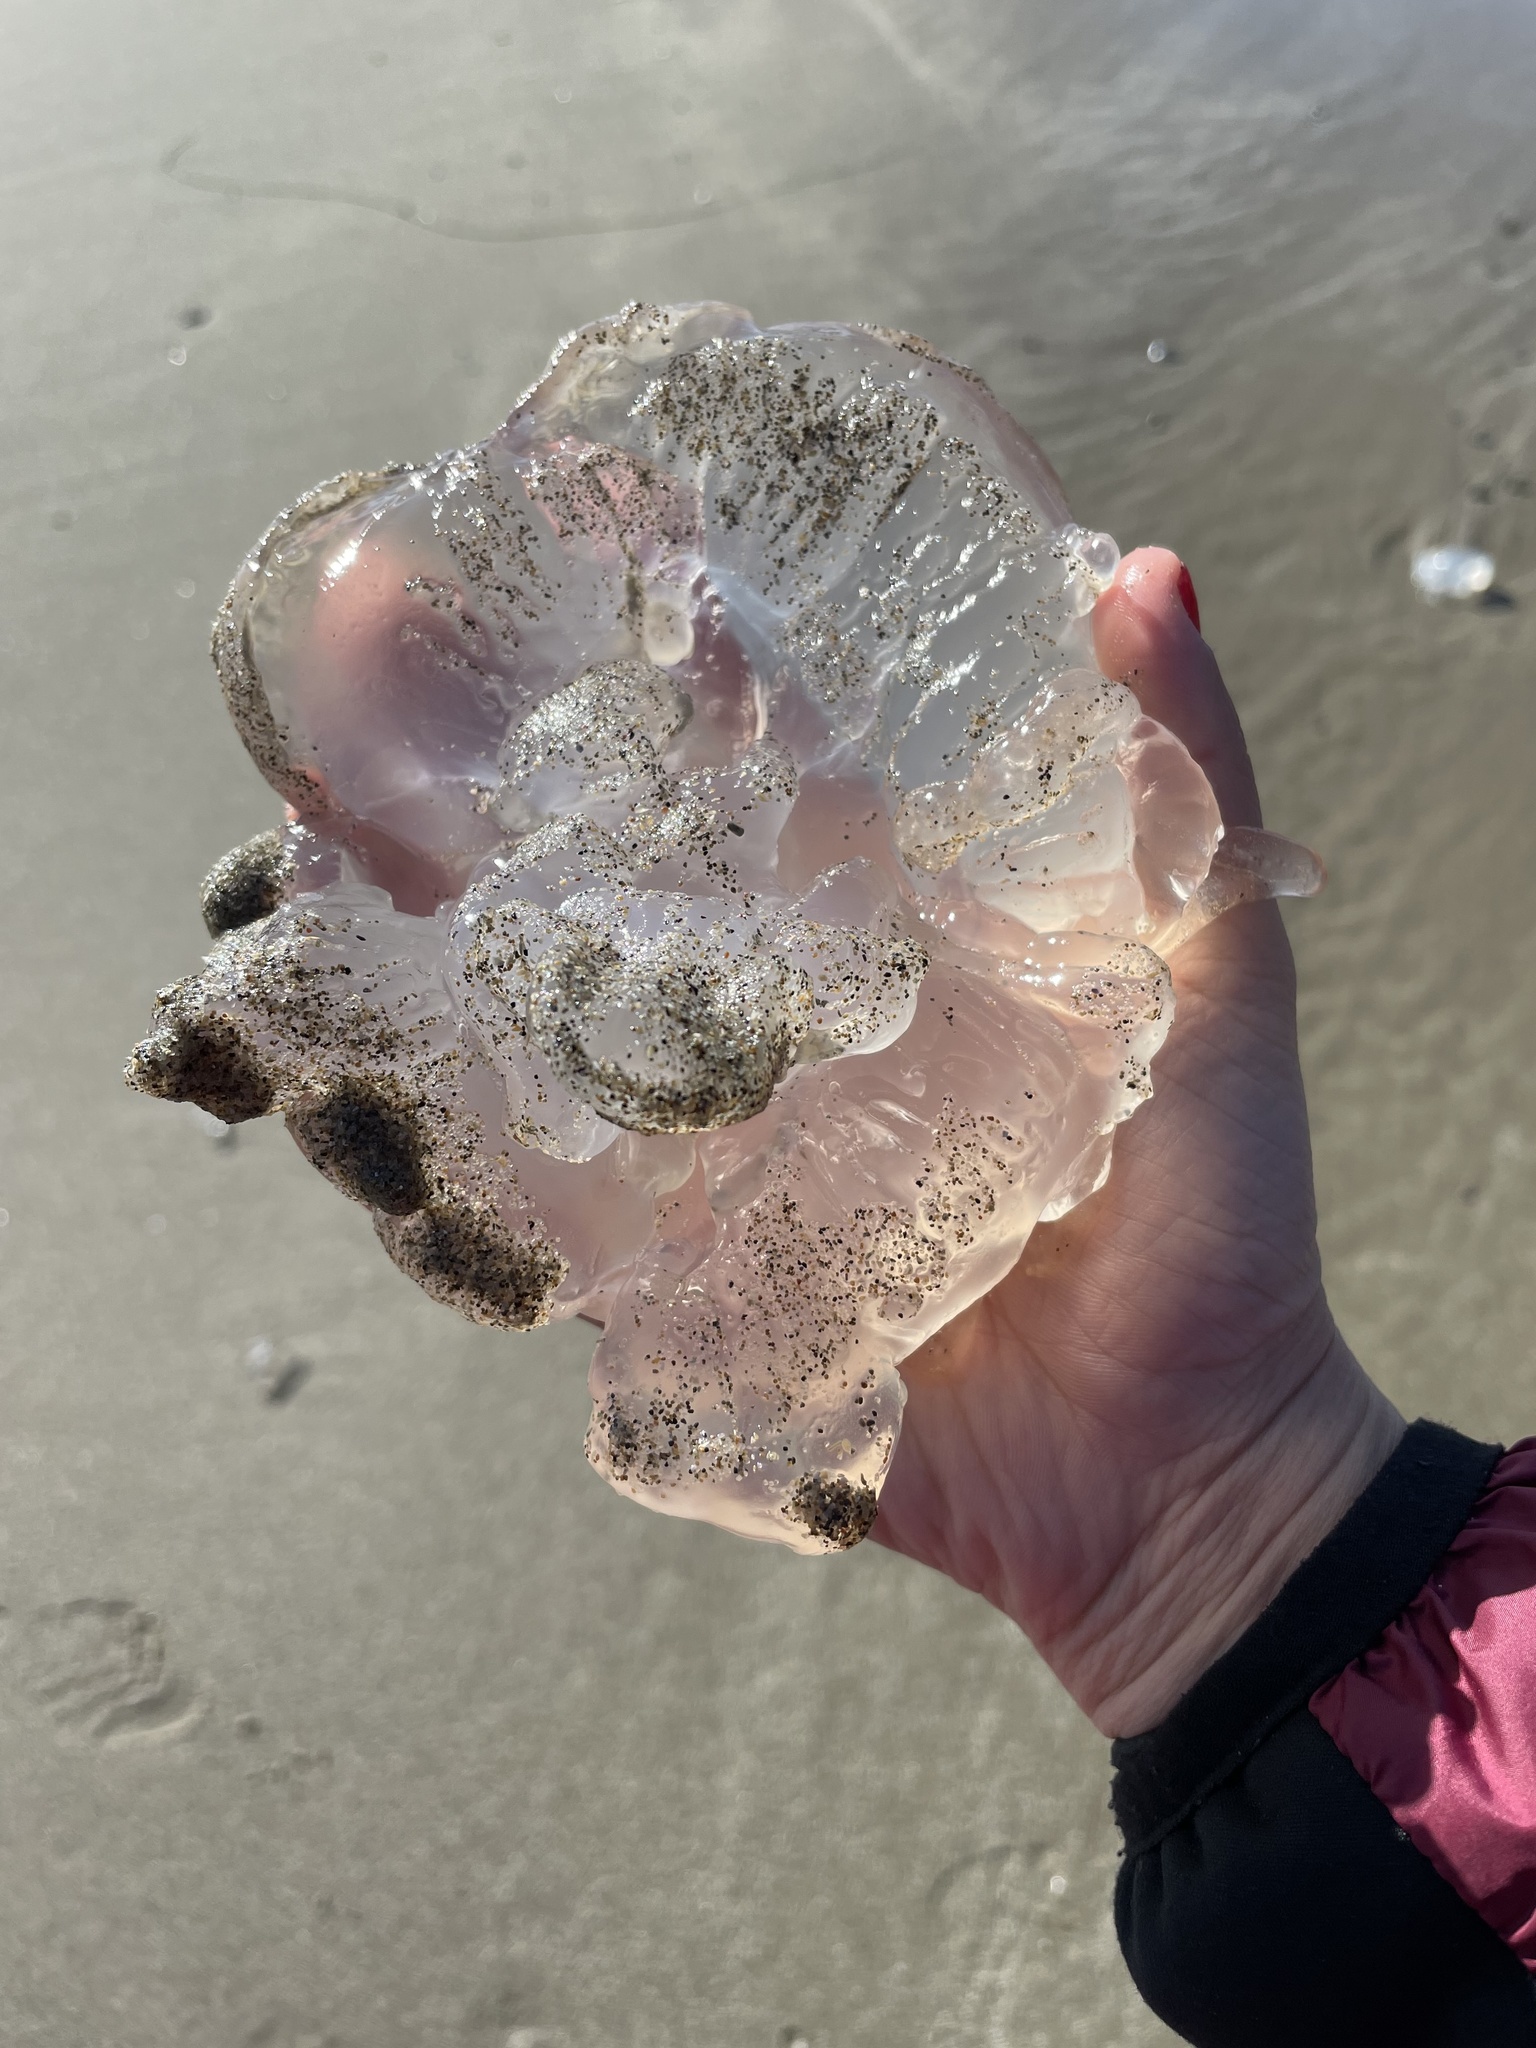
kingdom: Animalia
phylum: Cnidaria
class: Scyphozoa
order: Semaeostomeae
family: Ulmaridae
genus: Aurelia
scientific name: Aurelia labiata
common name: Pacific moon jelly
